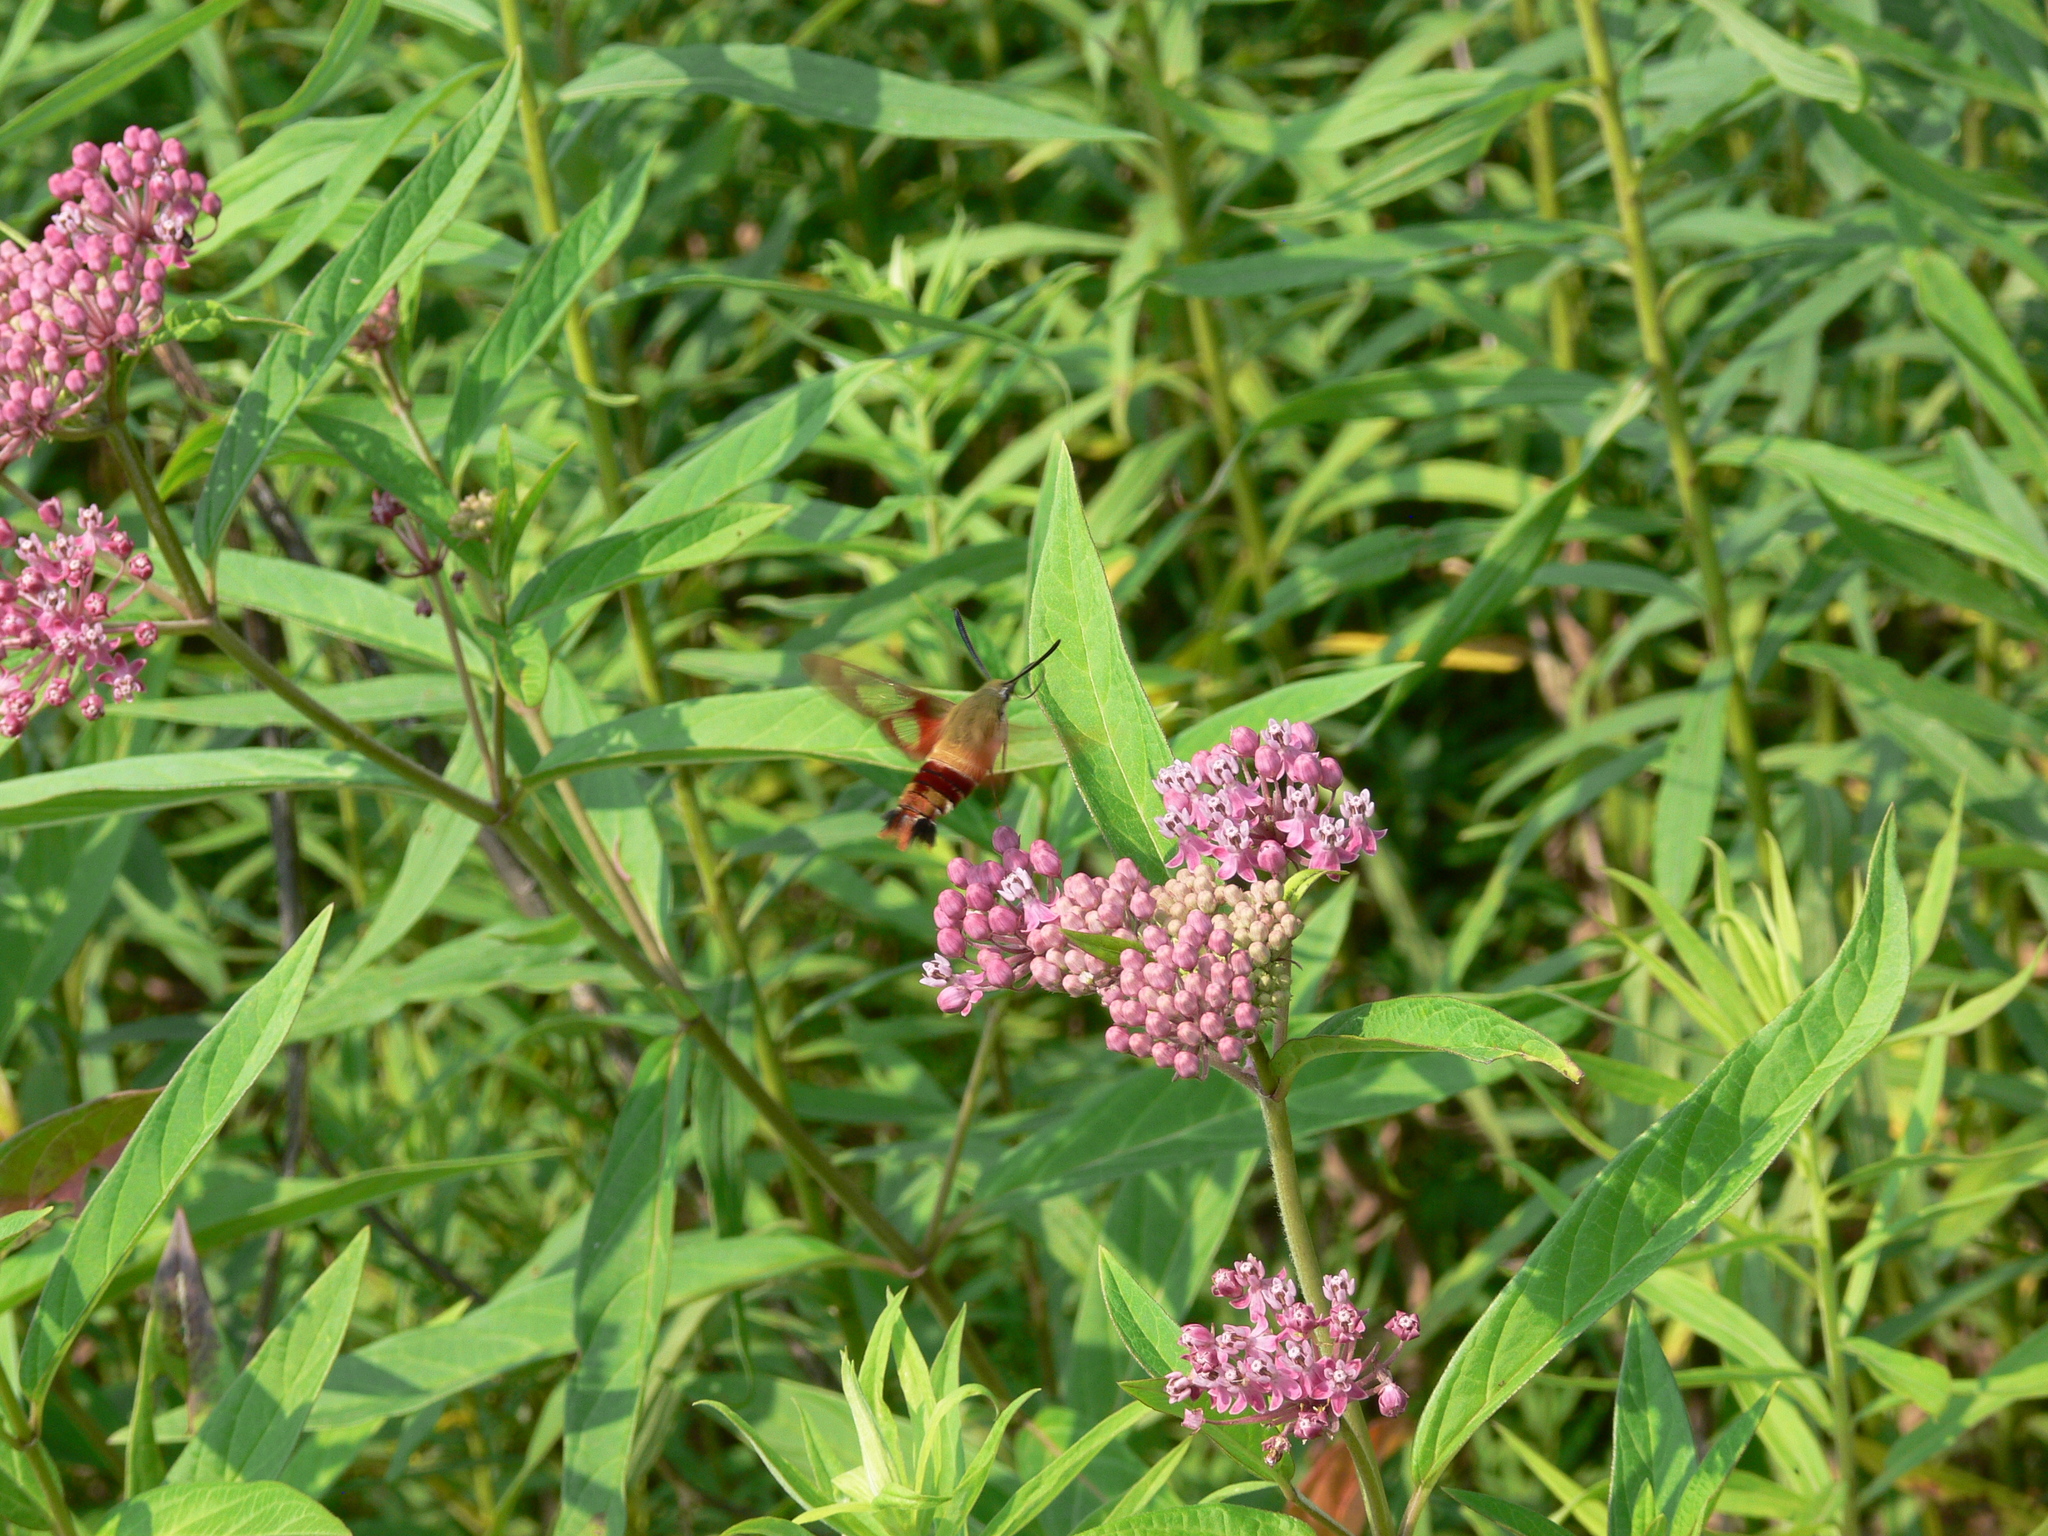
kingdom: Animalia
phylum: Arthropoda
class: Insecta
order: Lepidoptera
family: Sphingidae
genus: Hemaris
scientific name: Hemaris thysbe
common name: Common clear-wing
